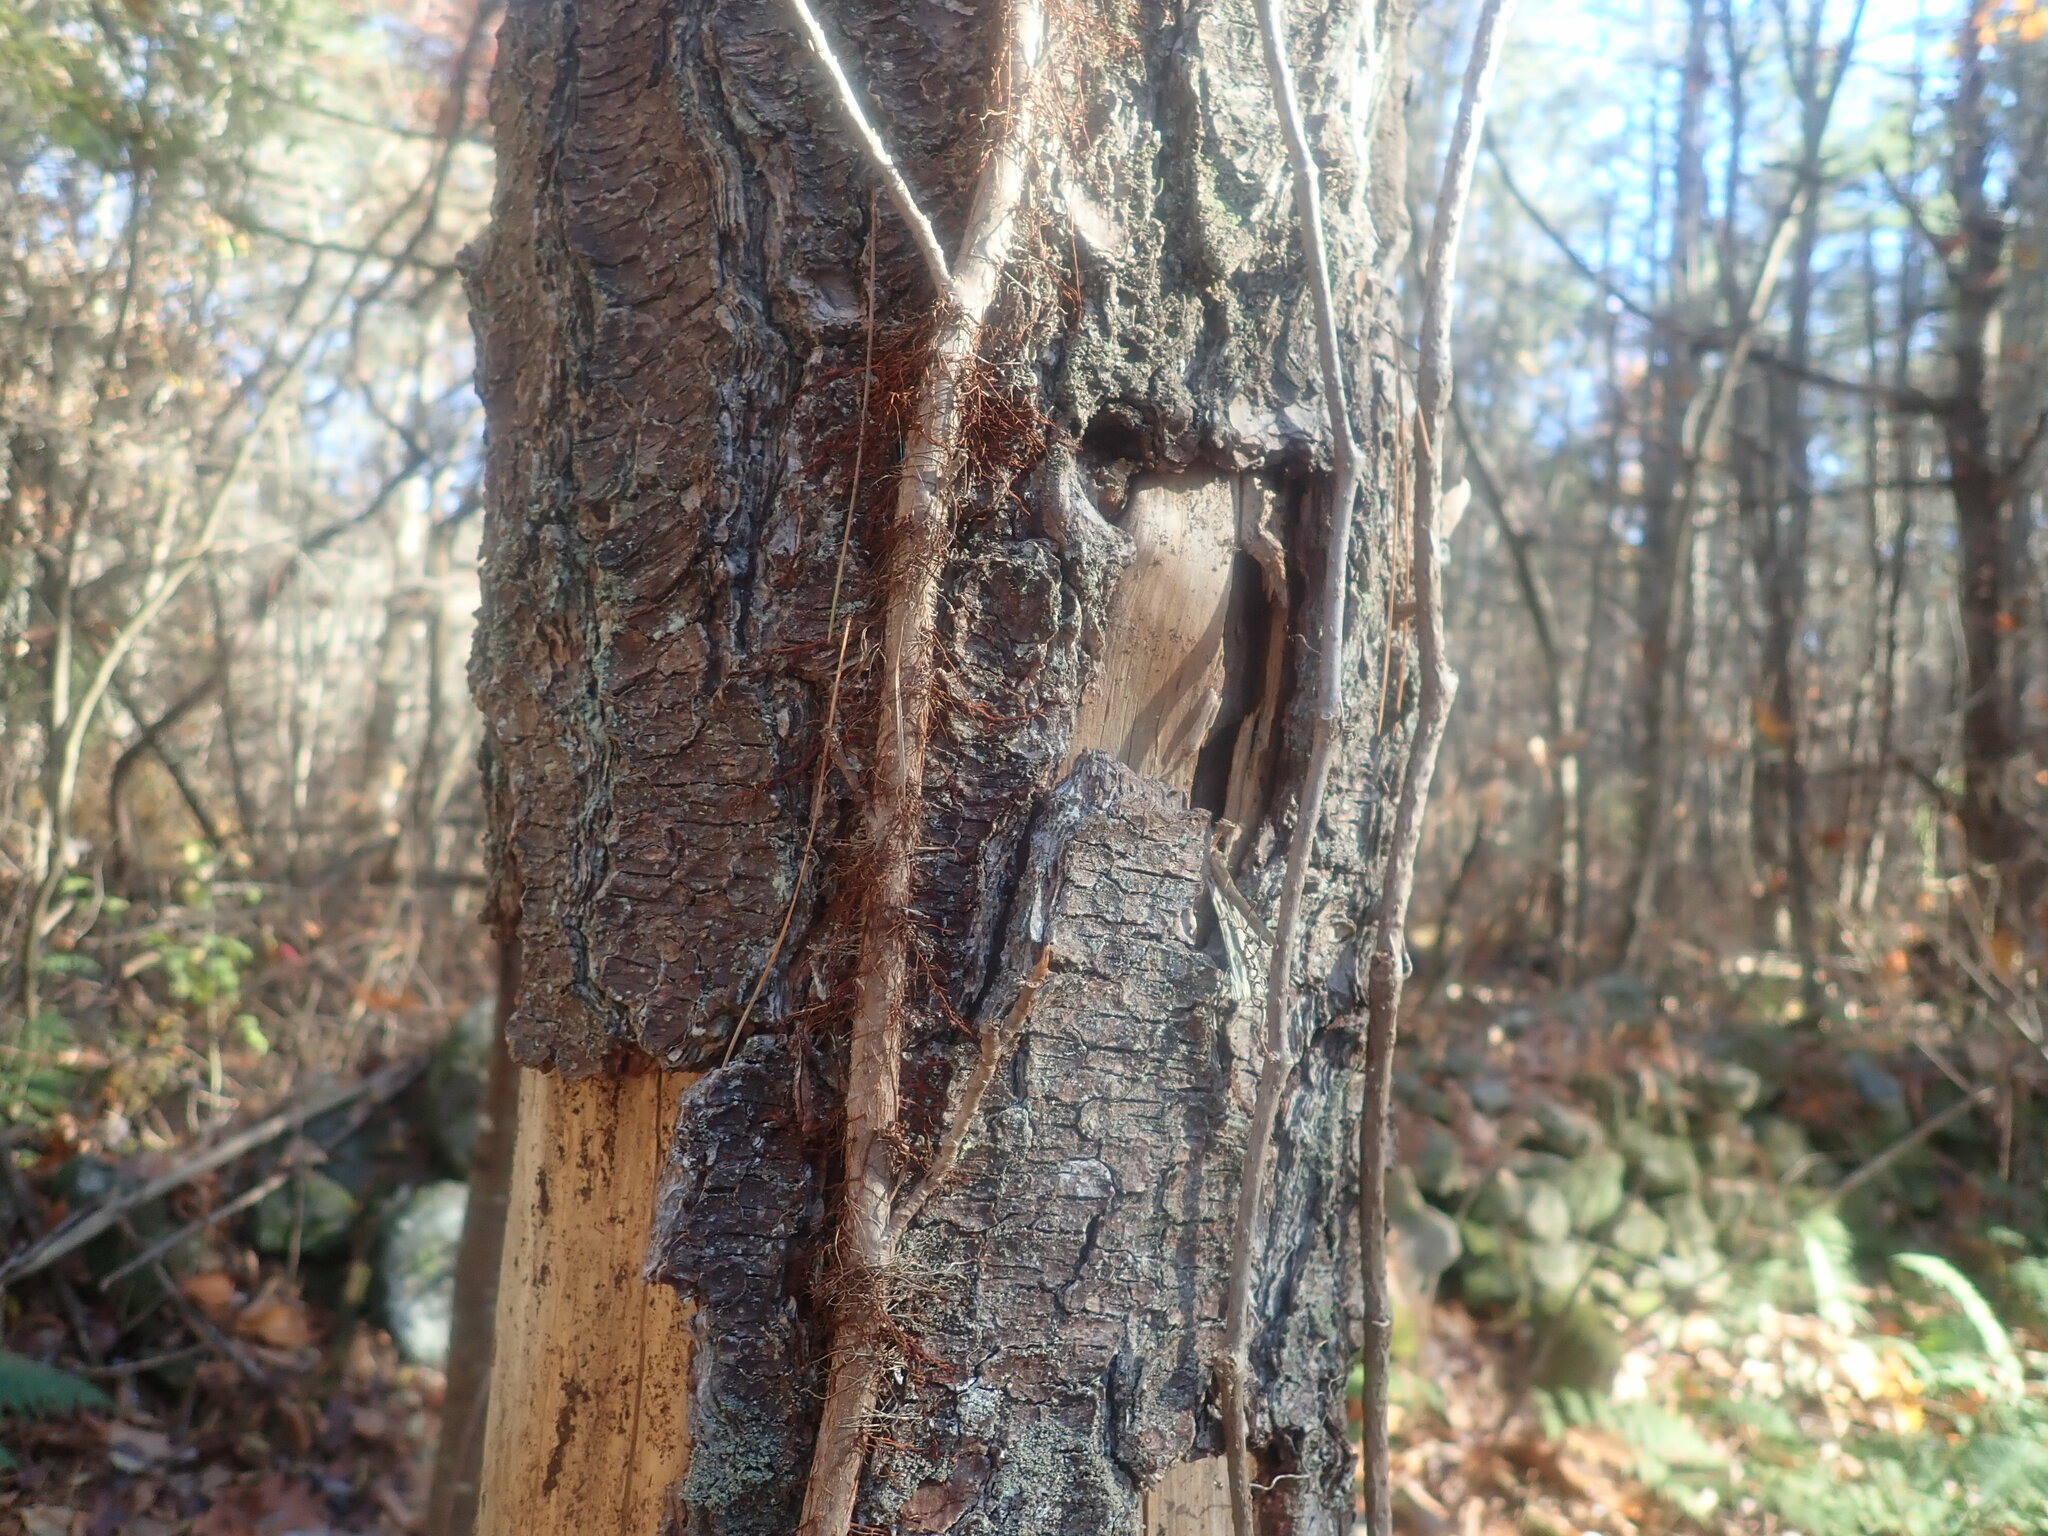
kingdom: Plantae
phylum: Tracheophyta
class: Magnoliopsida
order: Sapindales
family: Anacardiaceae
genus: Toxicodendron
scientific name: Toxicodendron radicans
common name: Poison ivy
